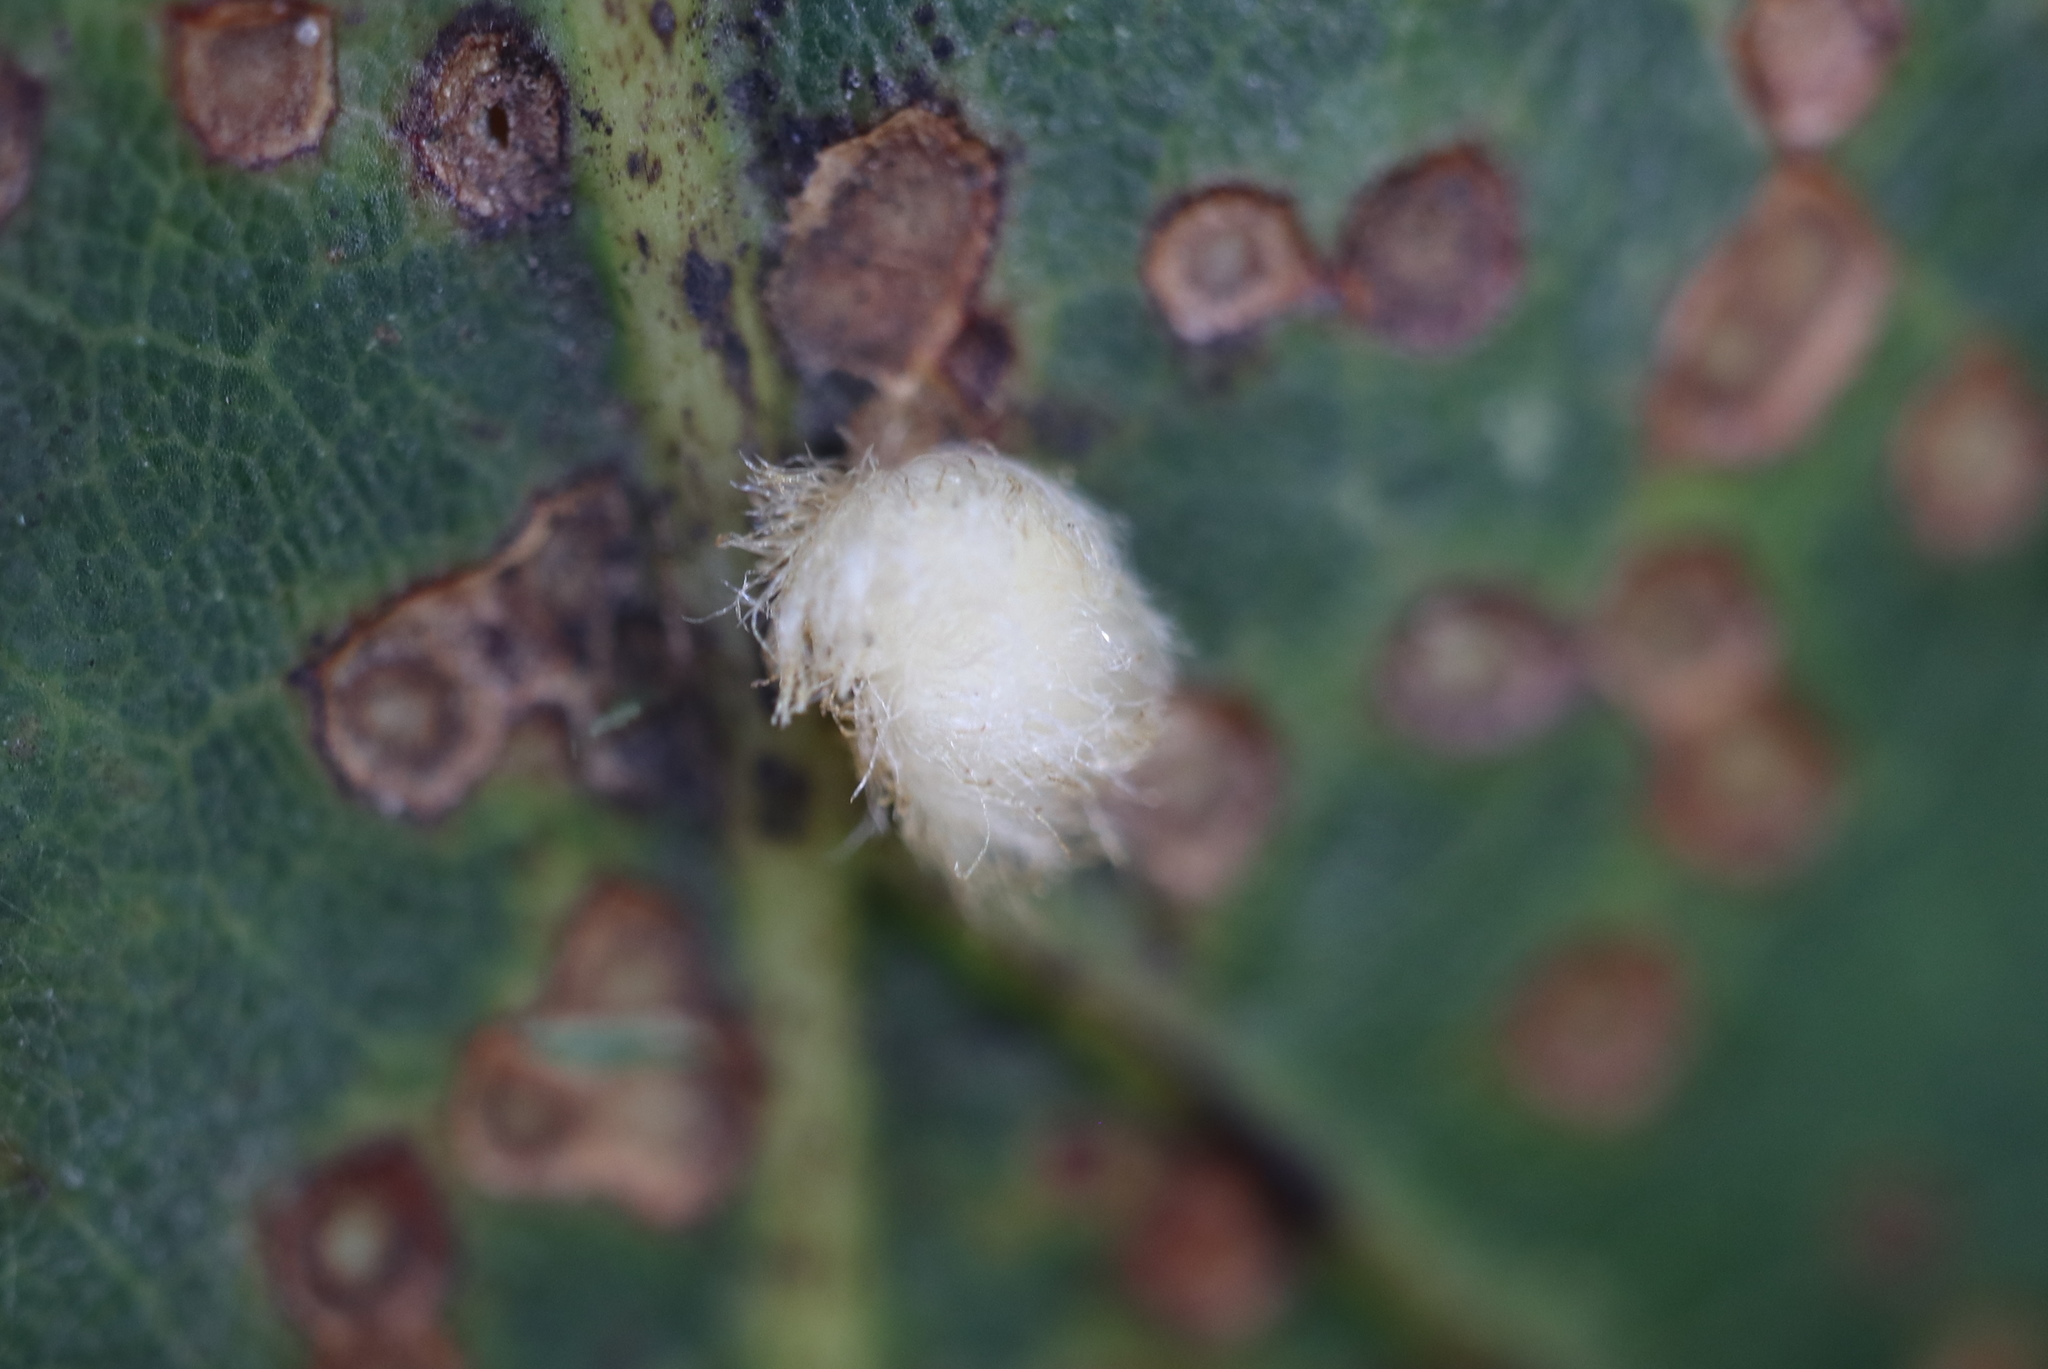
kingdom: Animalia
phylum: Arthropoda
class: Insecta
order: Hymenoptera
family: Cynipidae
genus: Andricus
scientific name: Andricus quercusflocci
